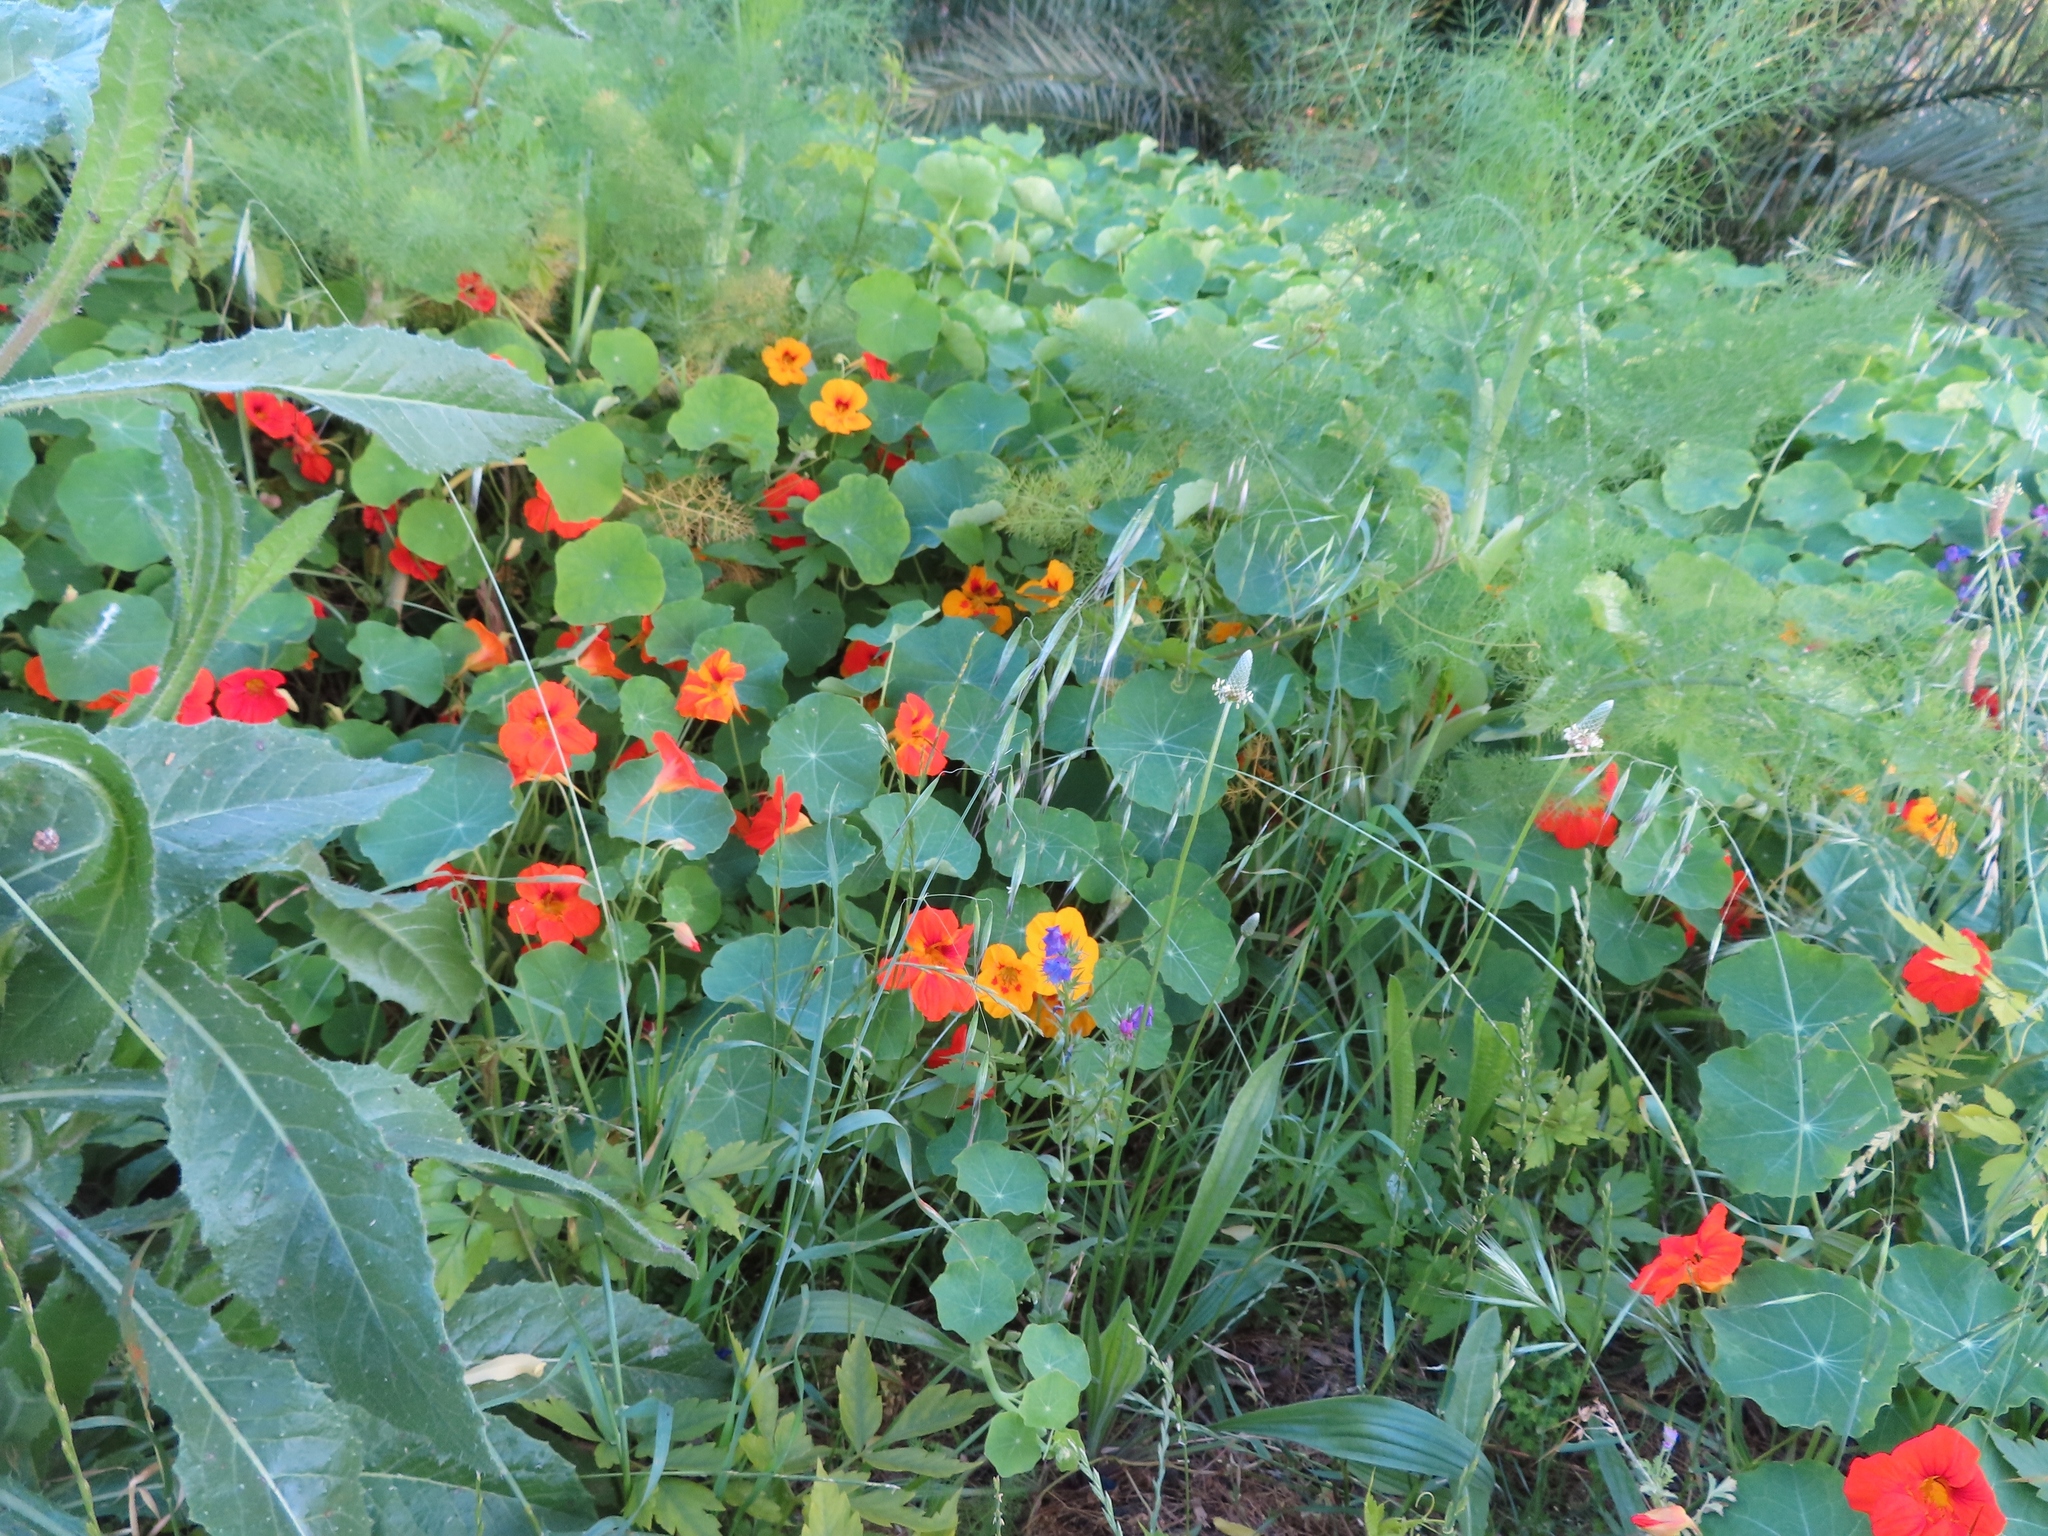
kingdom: Plantae
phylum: Tracheophyta
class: Magnoliopsida
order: Brassicales
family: Tropaeolaceae
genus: Tropaeolum
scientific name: Tropaeolum majus
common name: Nasturtium
